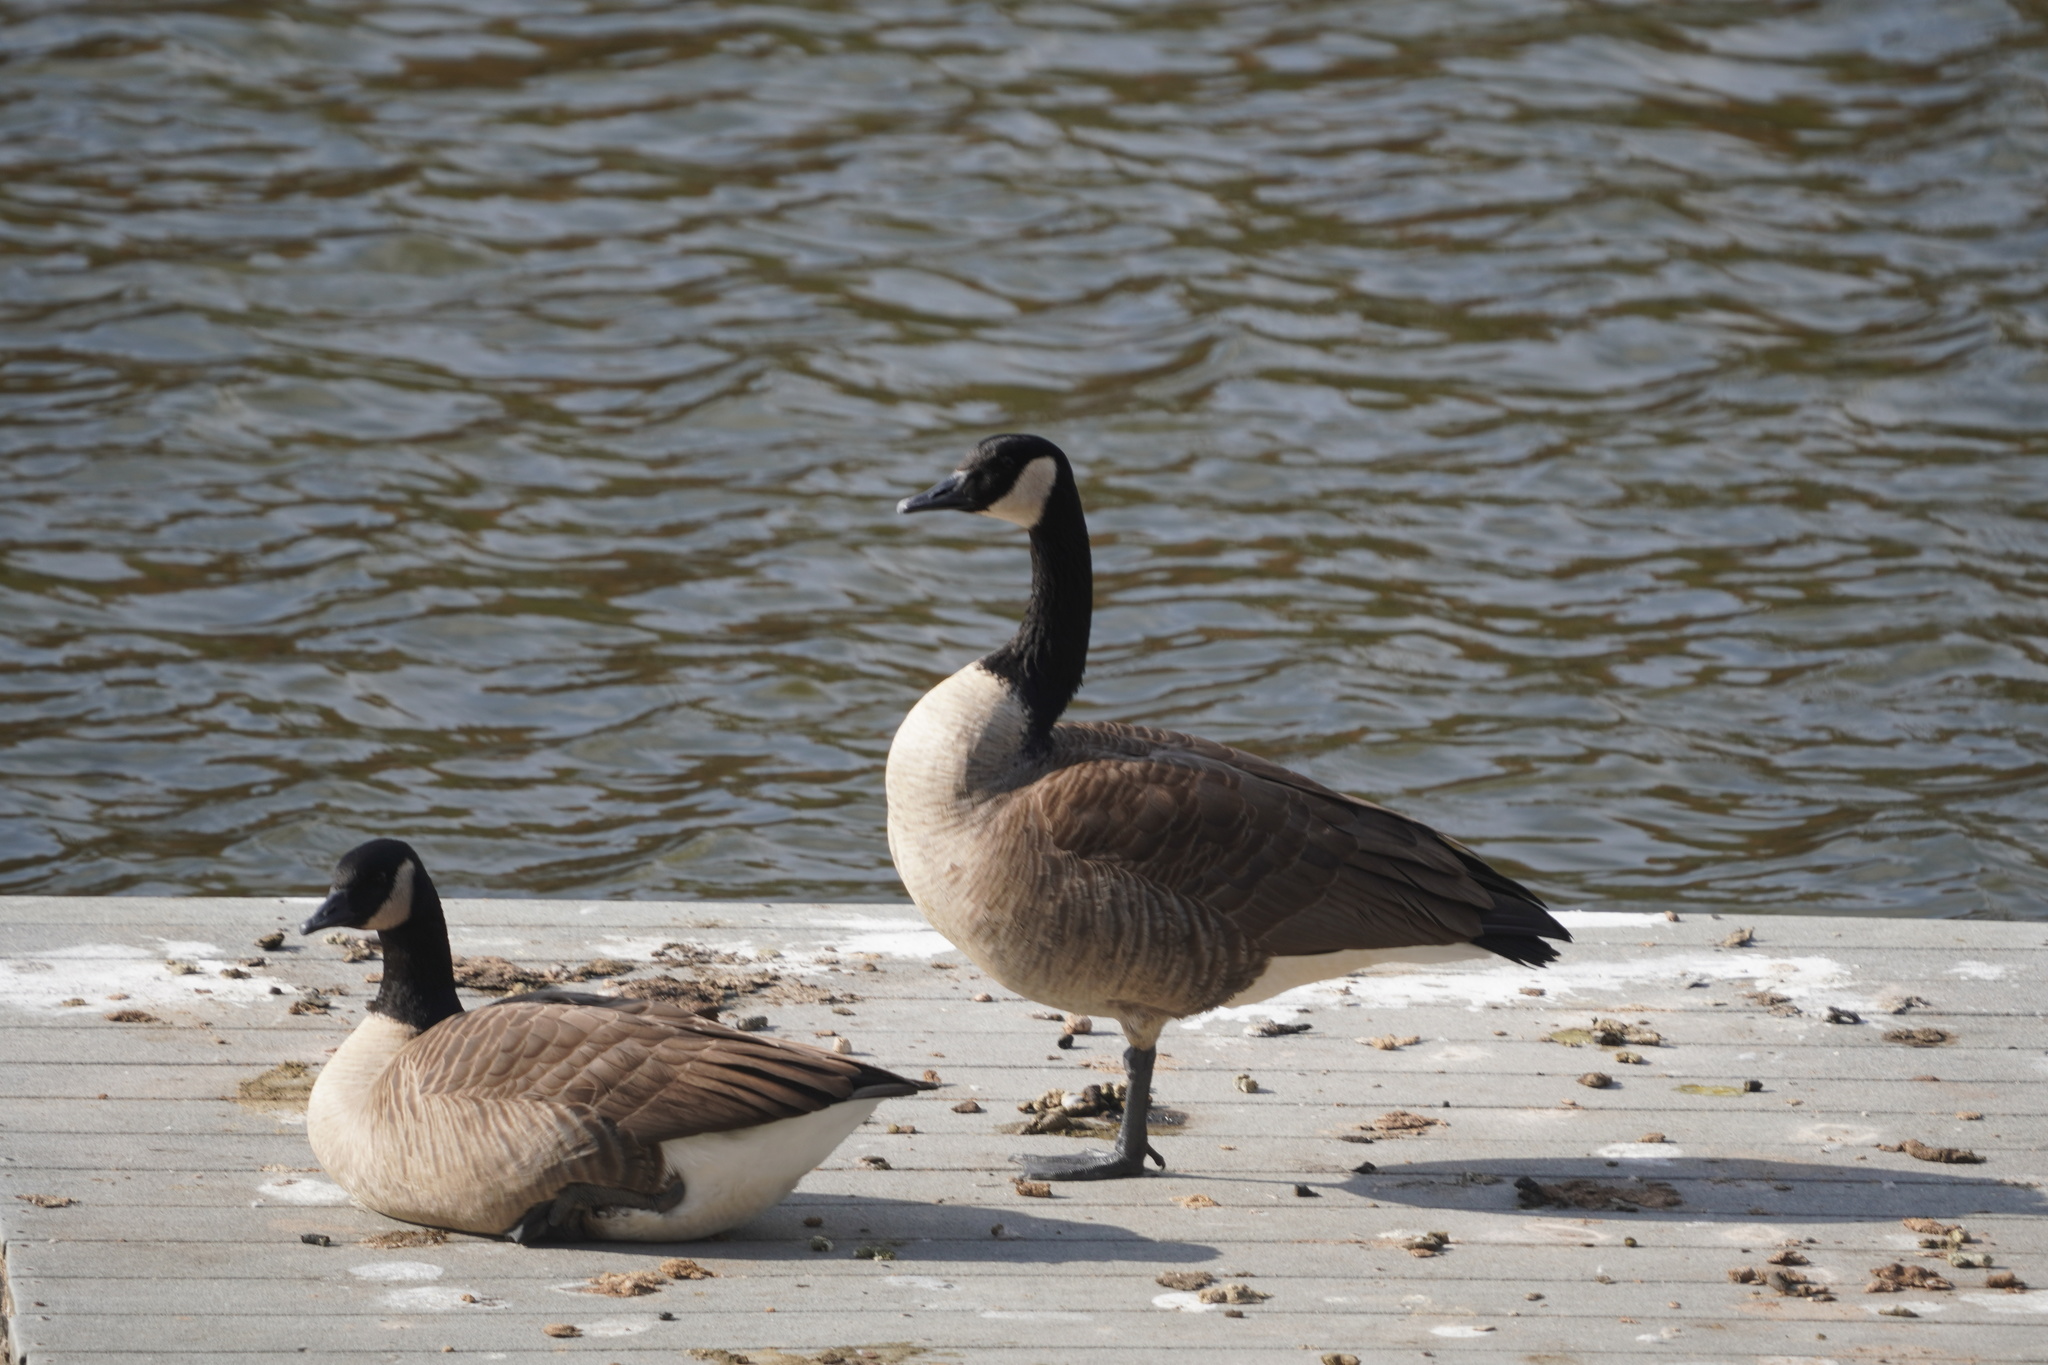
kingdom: Animalia
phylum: Chordata
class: Aves
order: Anseriformes
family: Anatidae
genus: Branta
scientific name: Branta canadensis
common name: Canada goose
